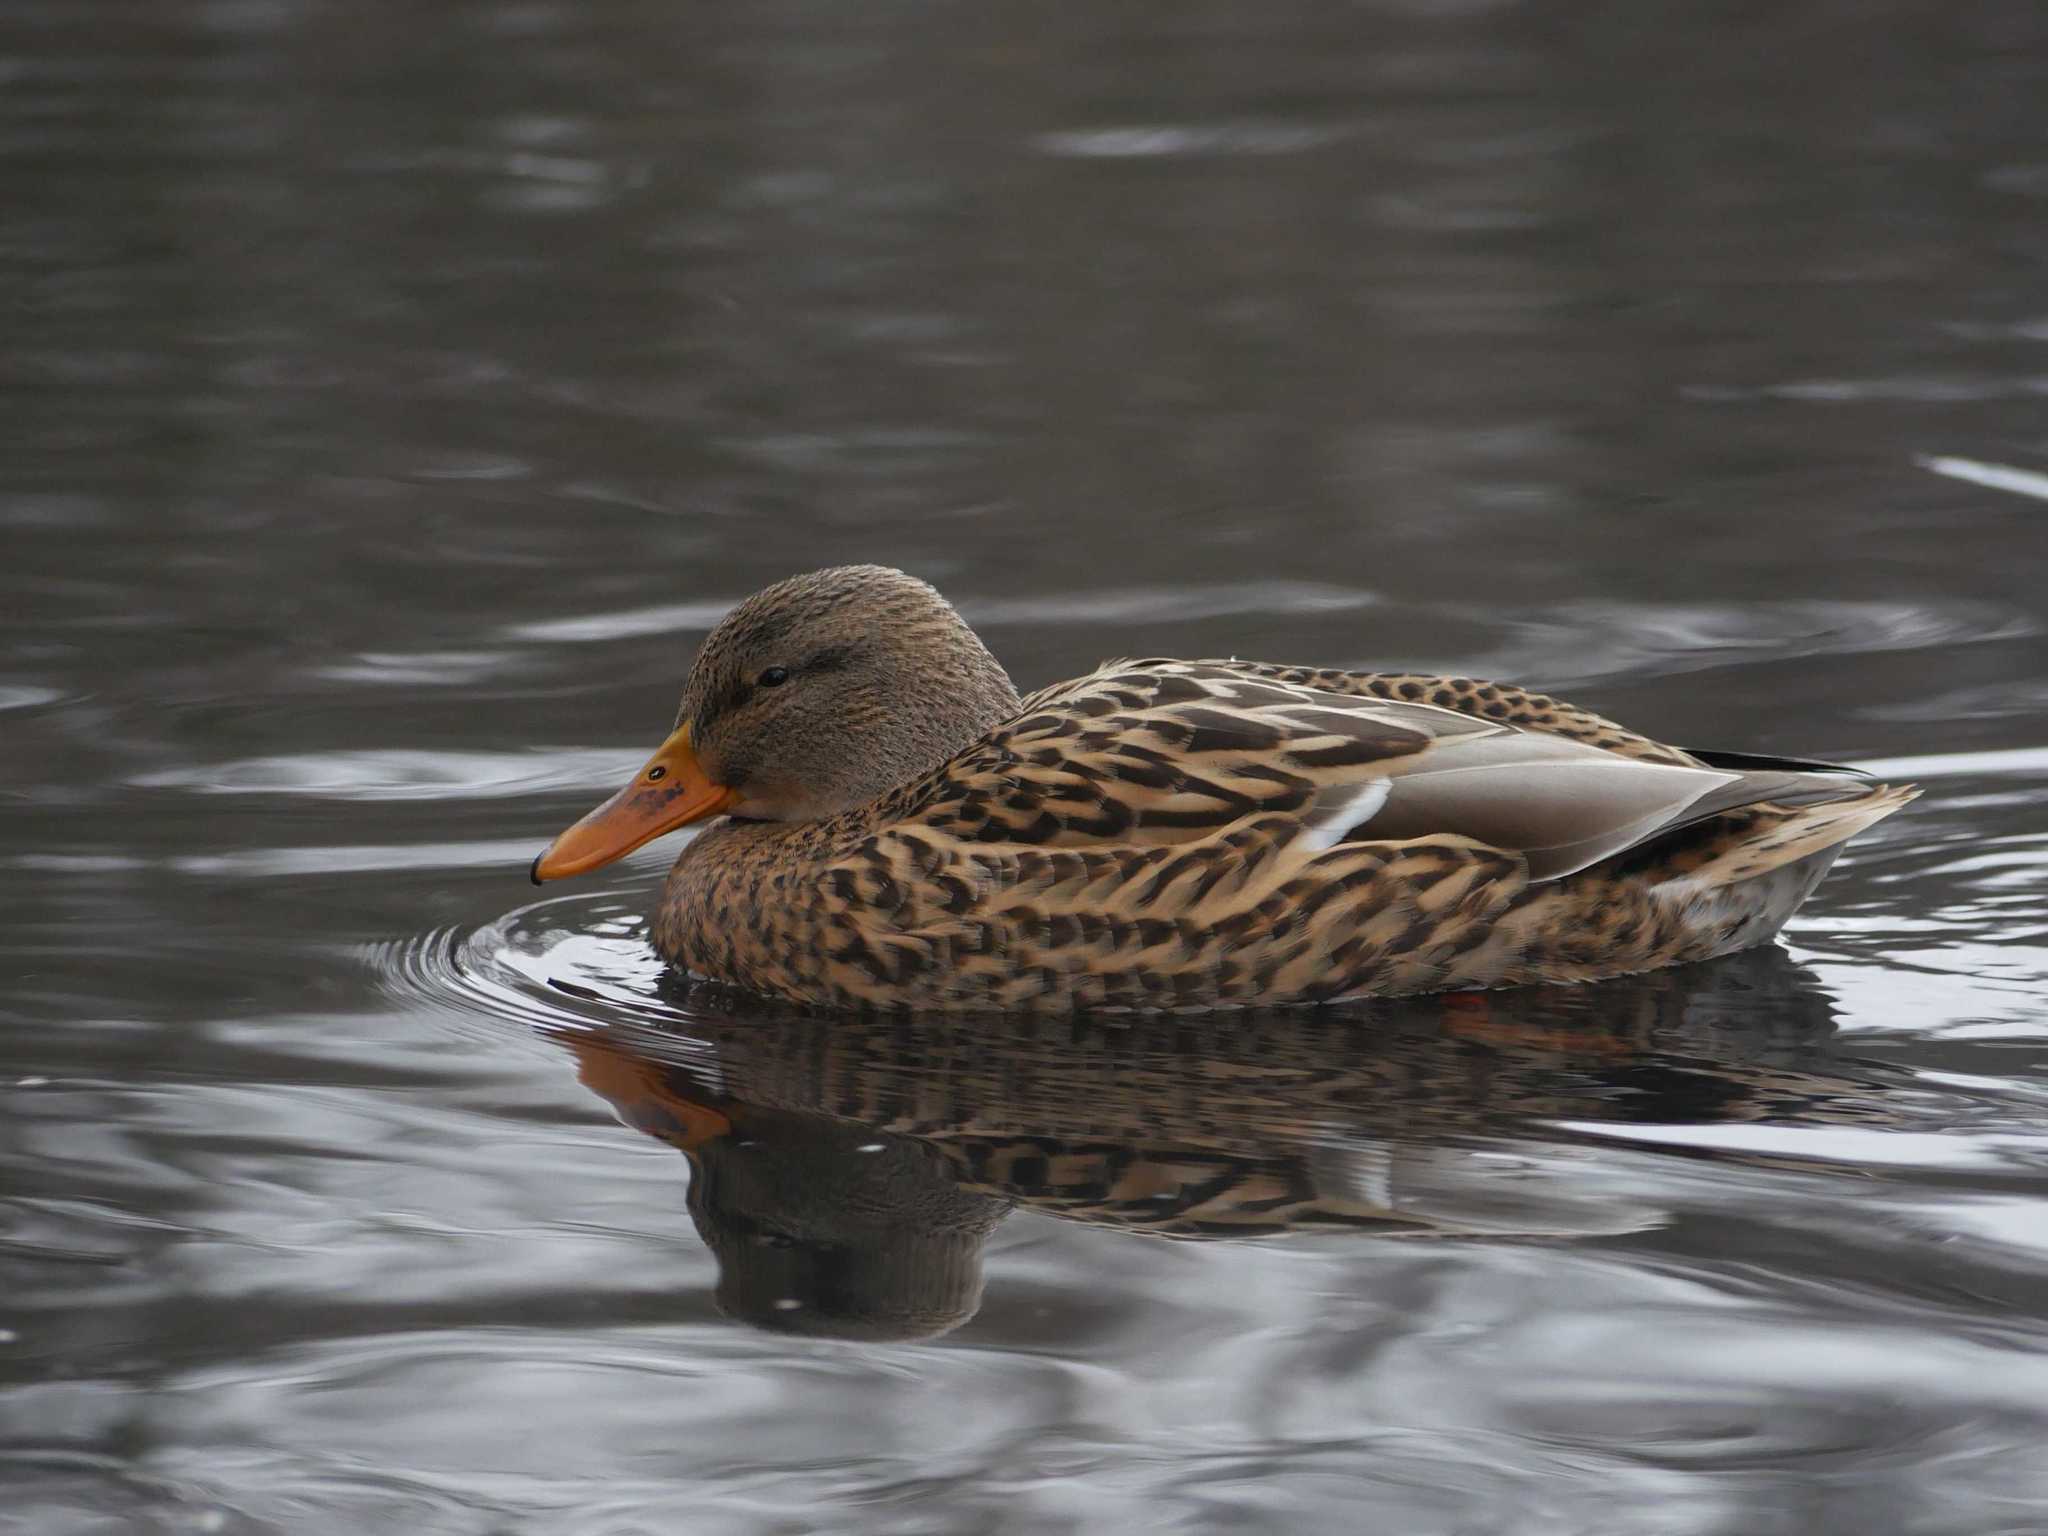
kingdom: Animalia
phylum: Chordata
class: Aves
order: Anseriformes
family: Anatidae
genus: Anas
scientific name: Anas platyrhynchos
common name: Mallard
